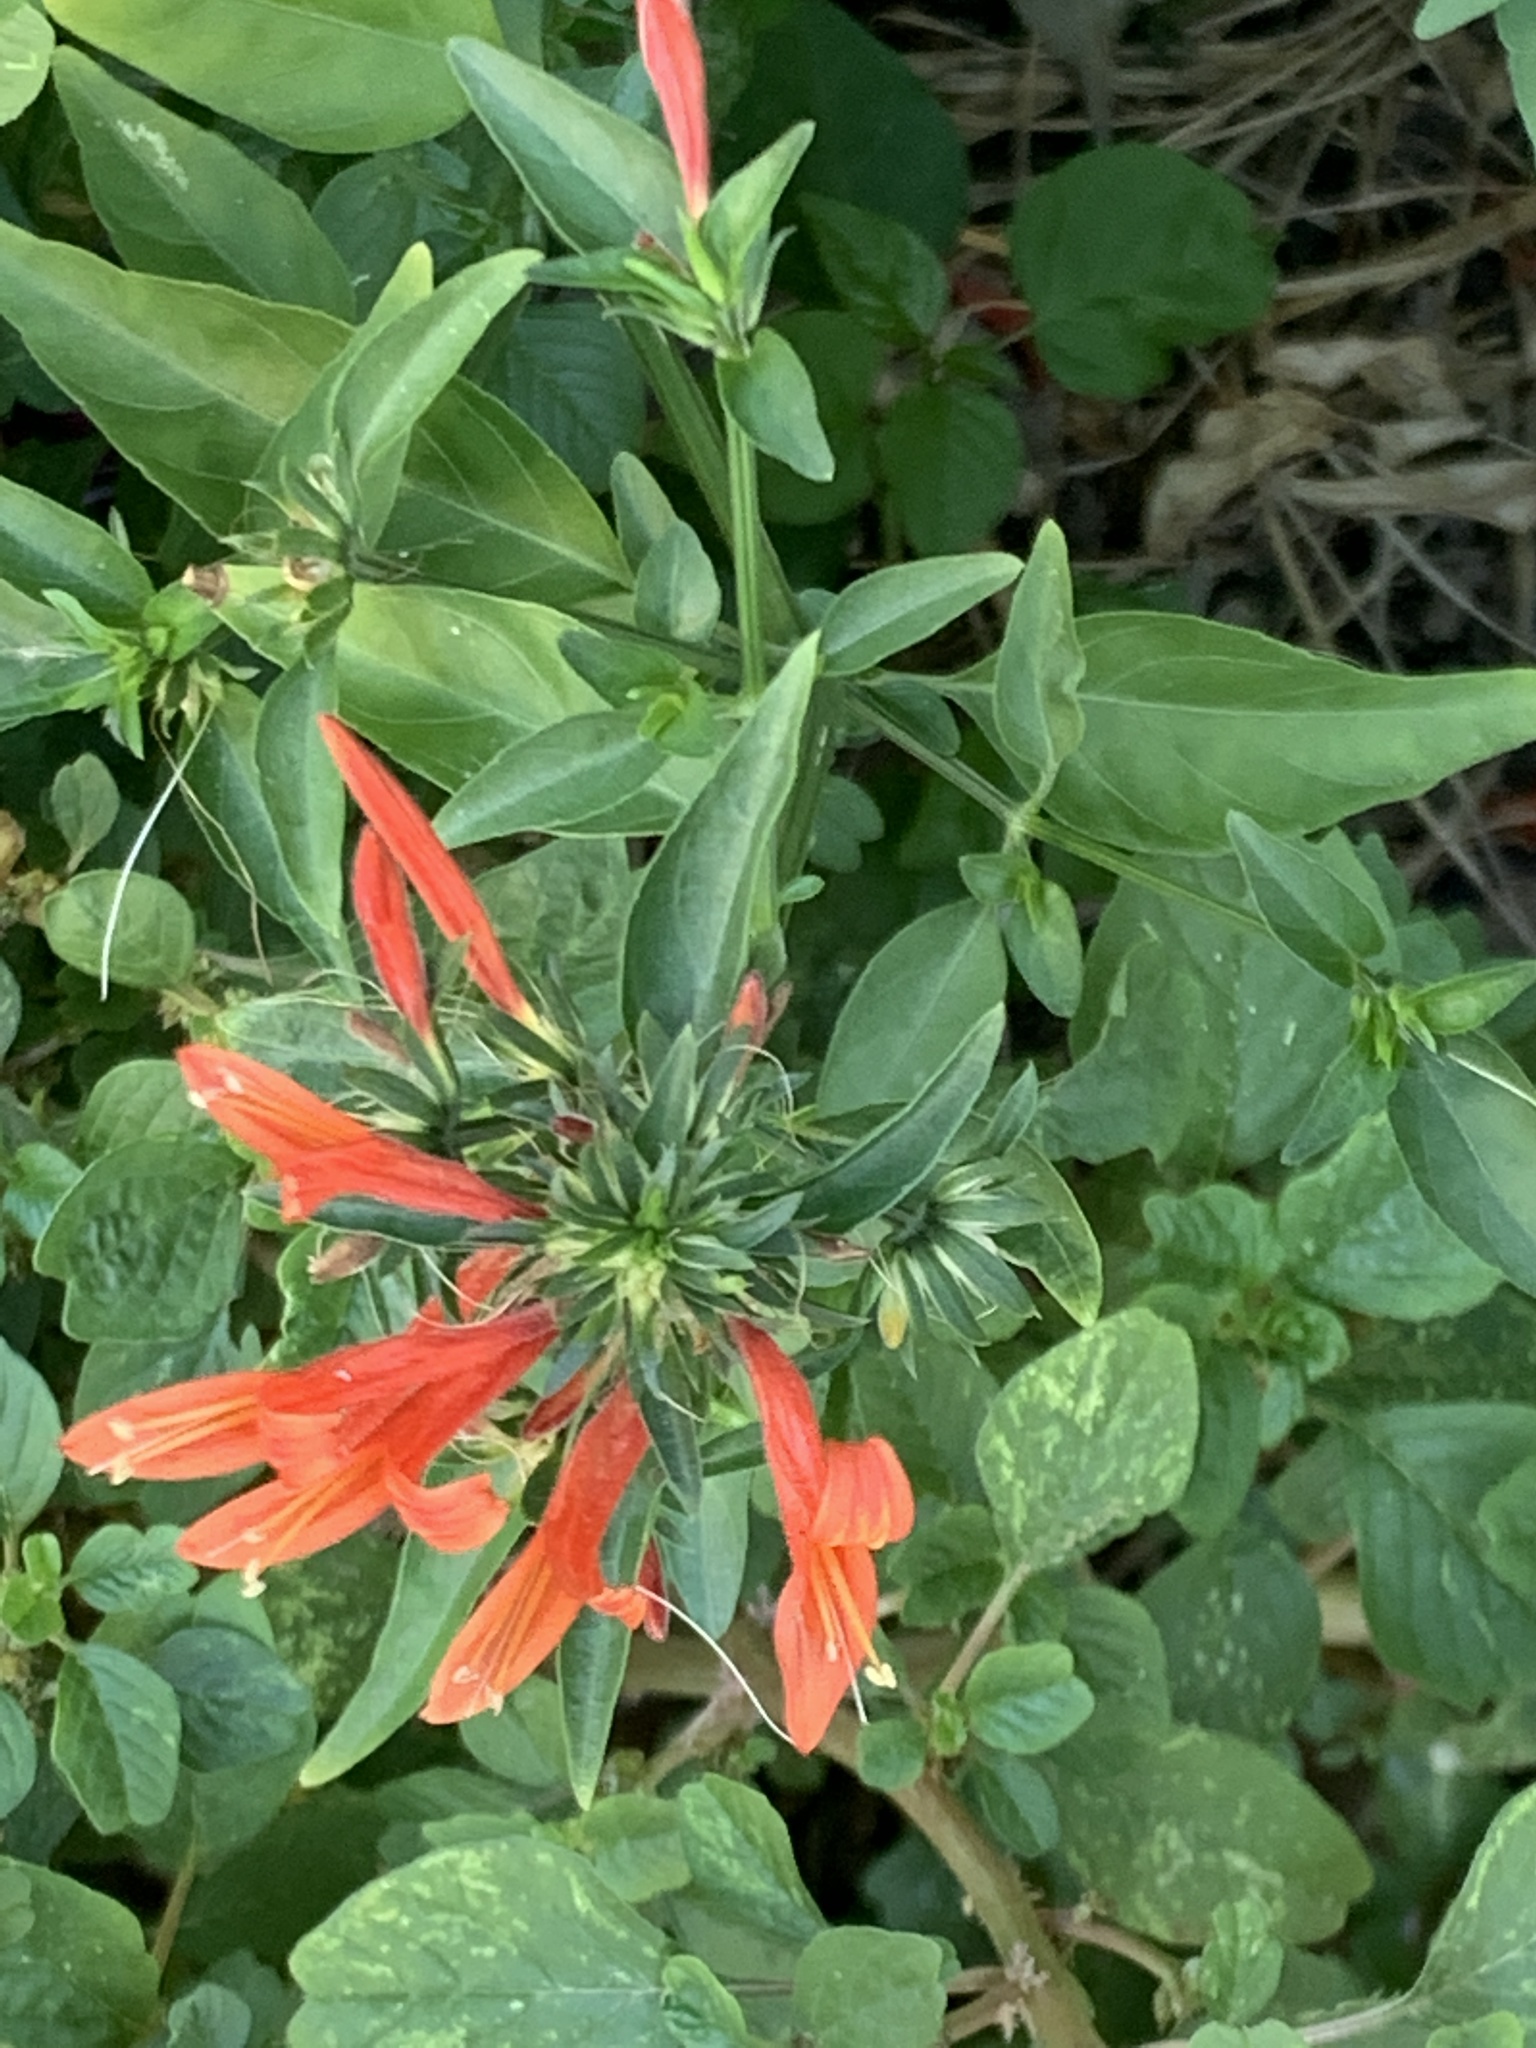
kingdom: Plantae
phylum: Tracheophyta
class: Magnoliopsida
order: Lamiales
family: Acanthaceae
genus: Dicliptera
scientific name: Dicliptera squarrosa
